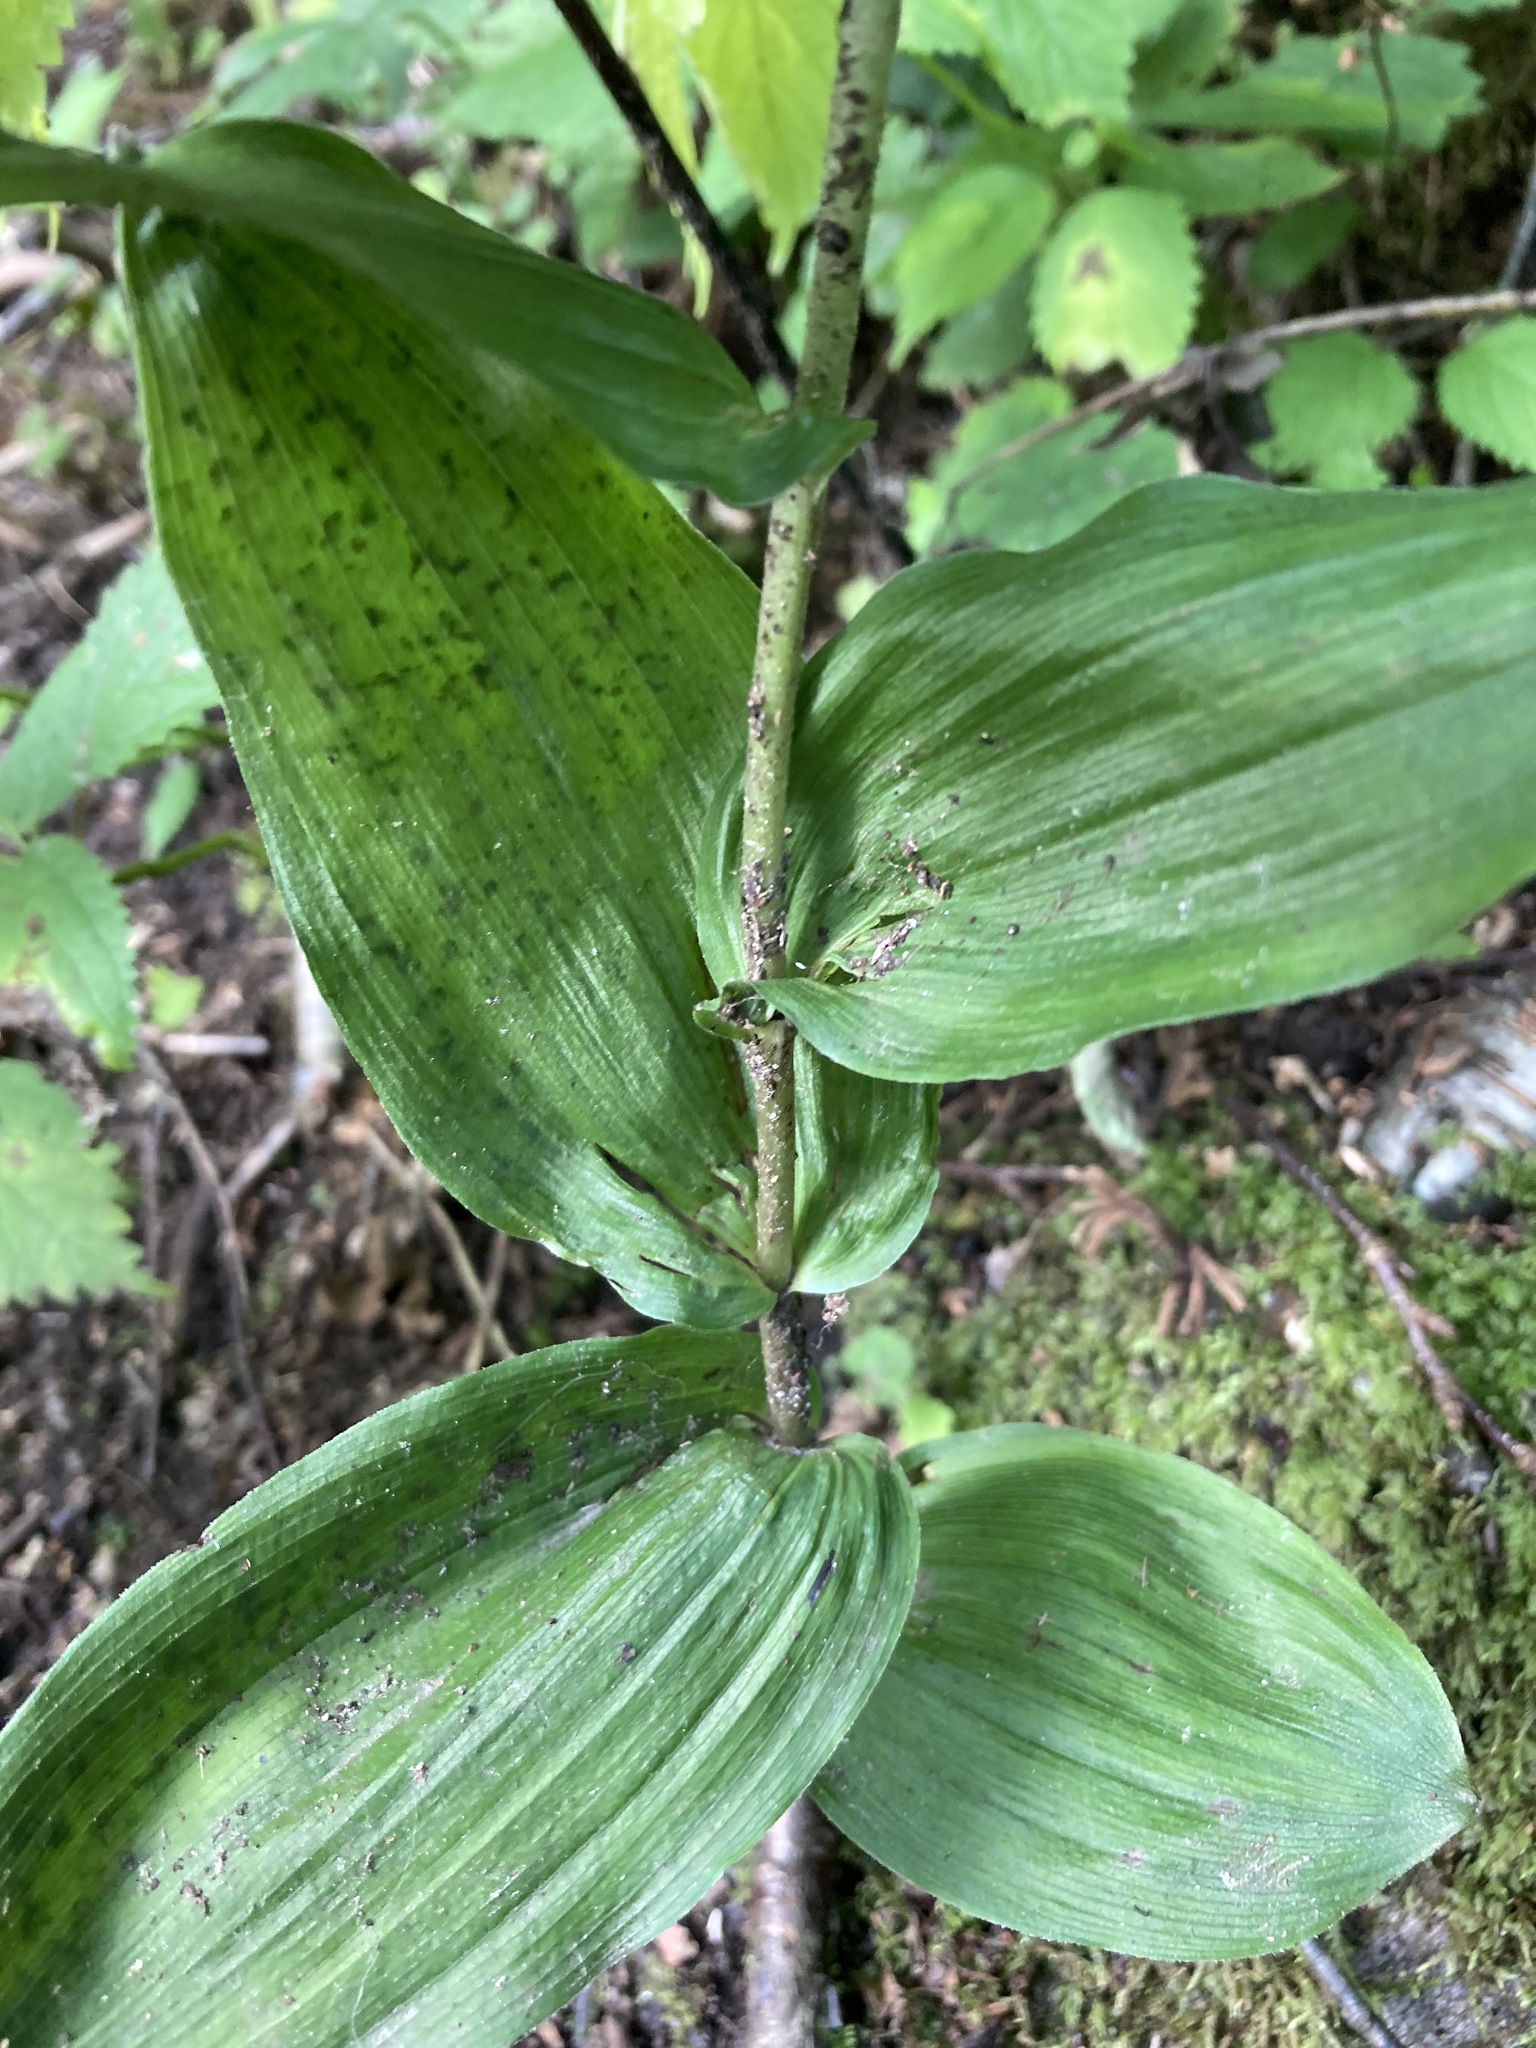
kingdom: Plantae
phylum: Tracheophyta
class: Liliopsida
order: Asparagales
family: Orchidaceae
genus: Epipactis
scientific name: Epipactis helleborine
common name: Broad-leaved helleborine
